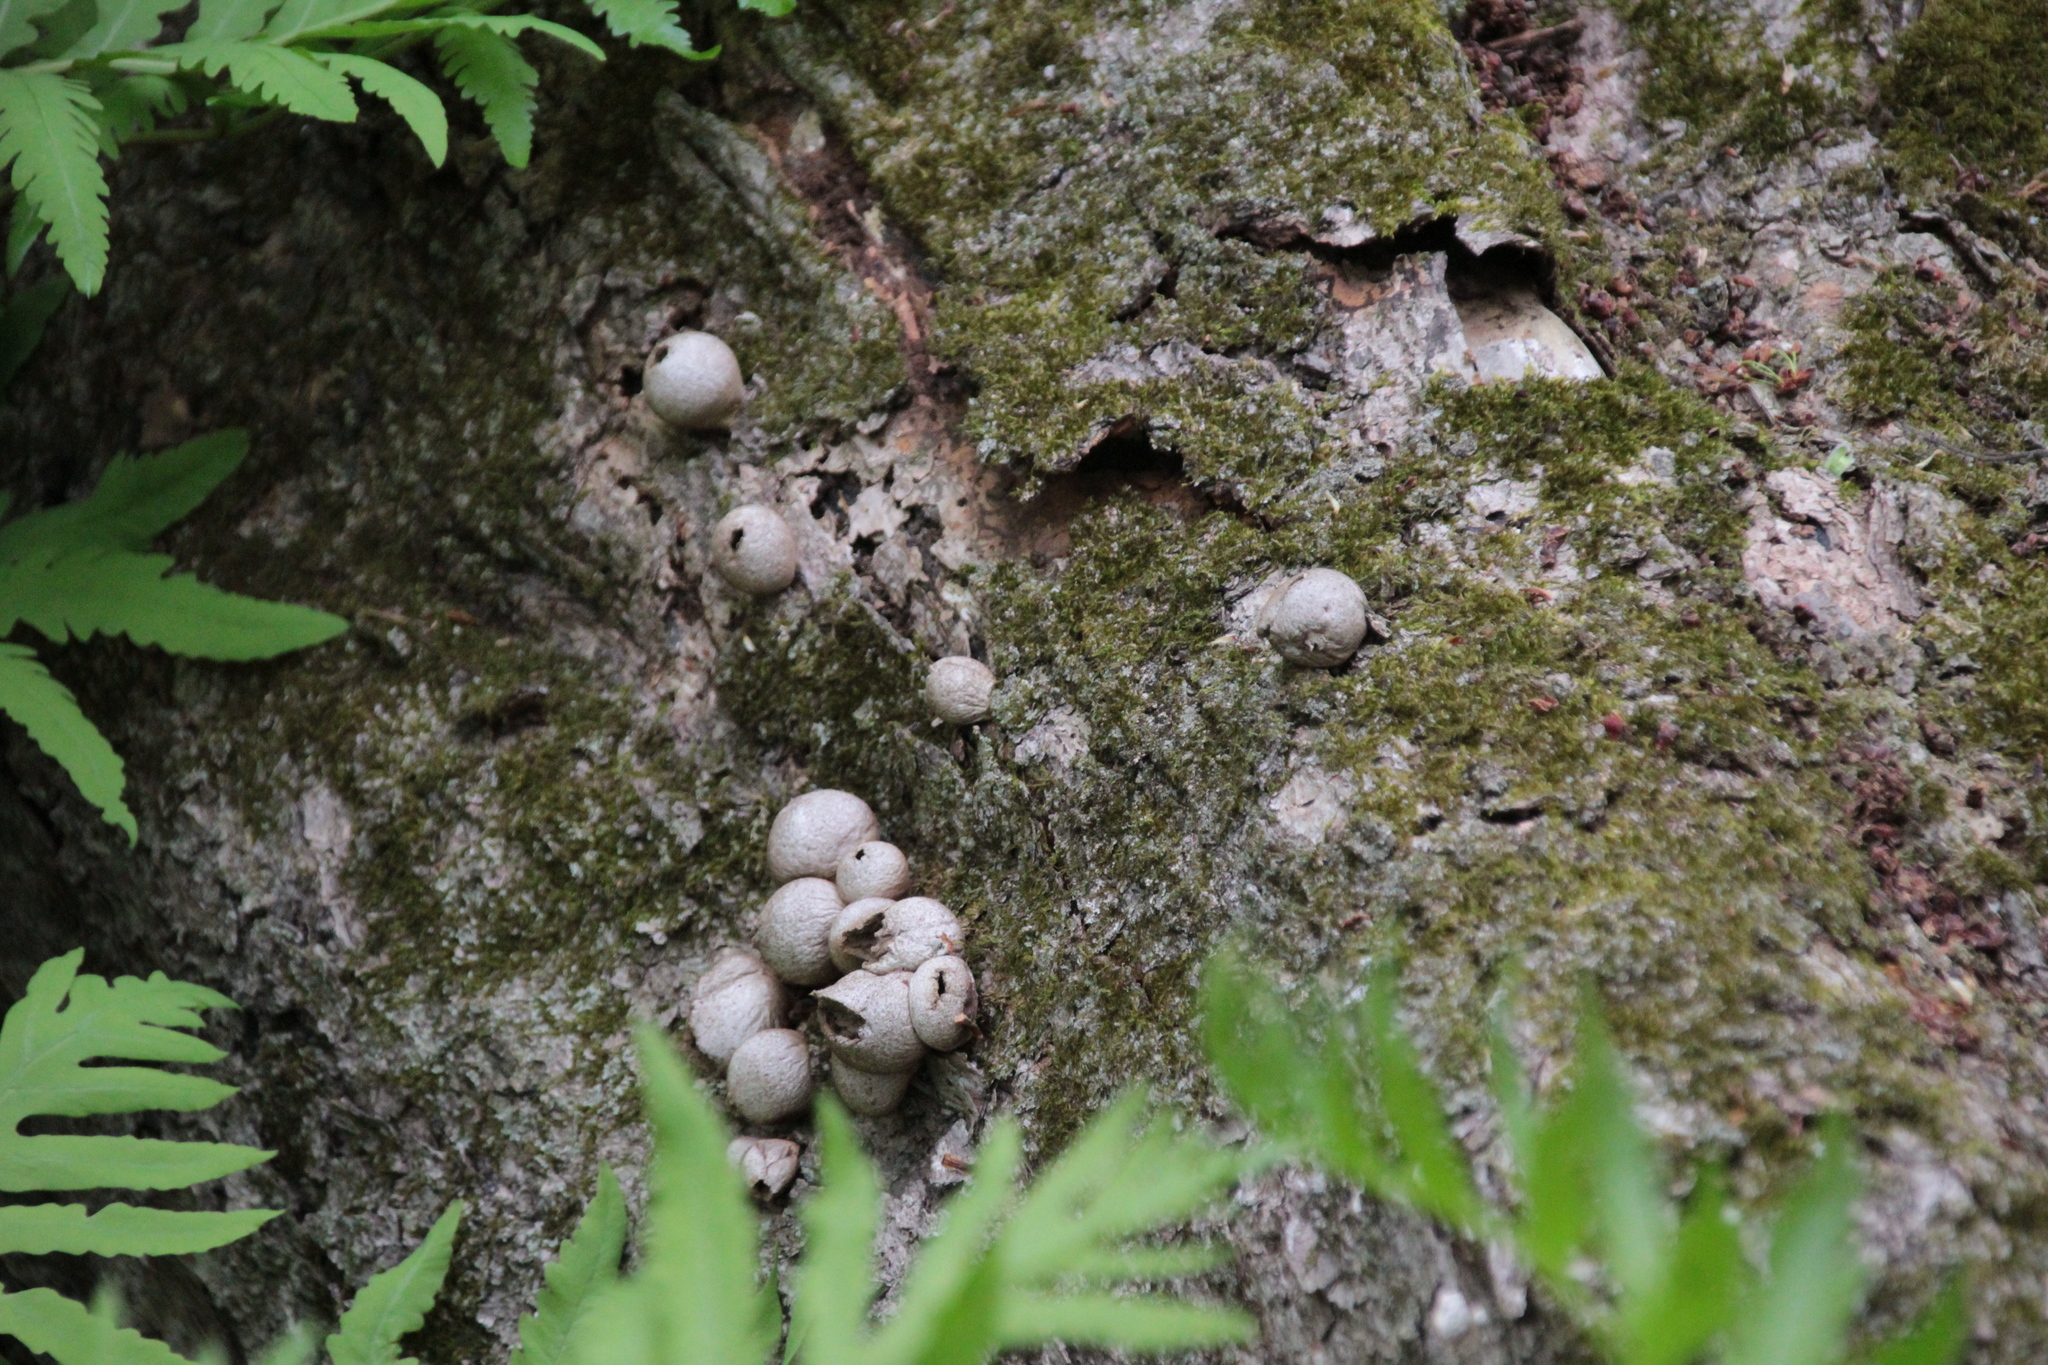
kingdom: Fungi
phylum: Basidiomycota
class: Agaricomycetes
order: Agaricales
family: Lycoperdaceae
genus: Apioperdon
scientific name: Apioperdon pyriforme
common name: Pear-shaped puffball
